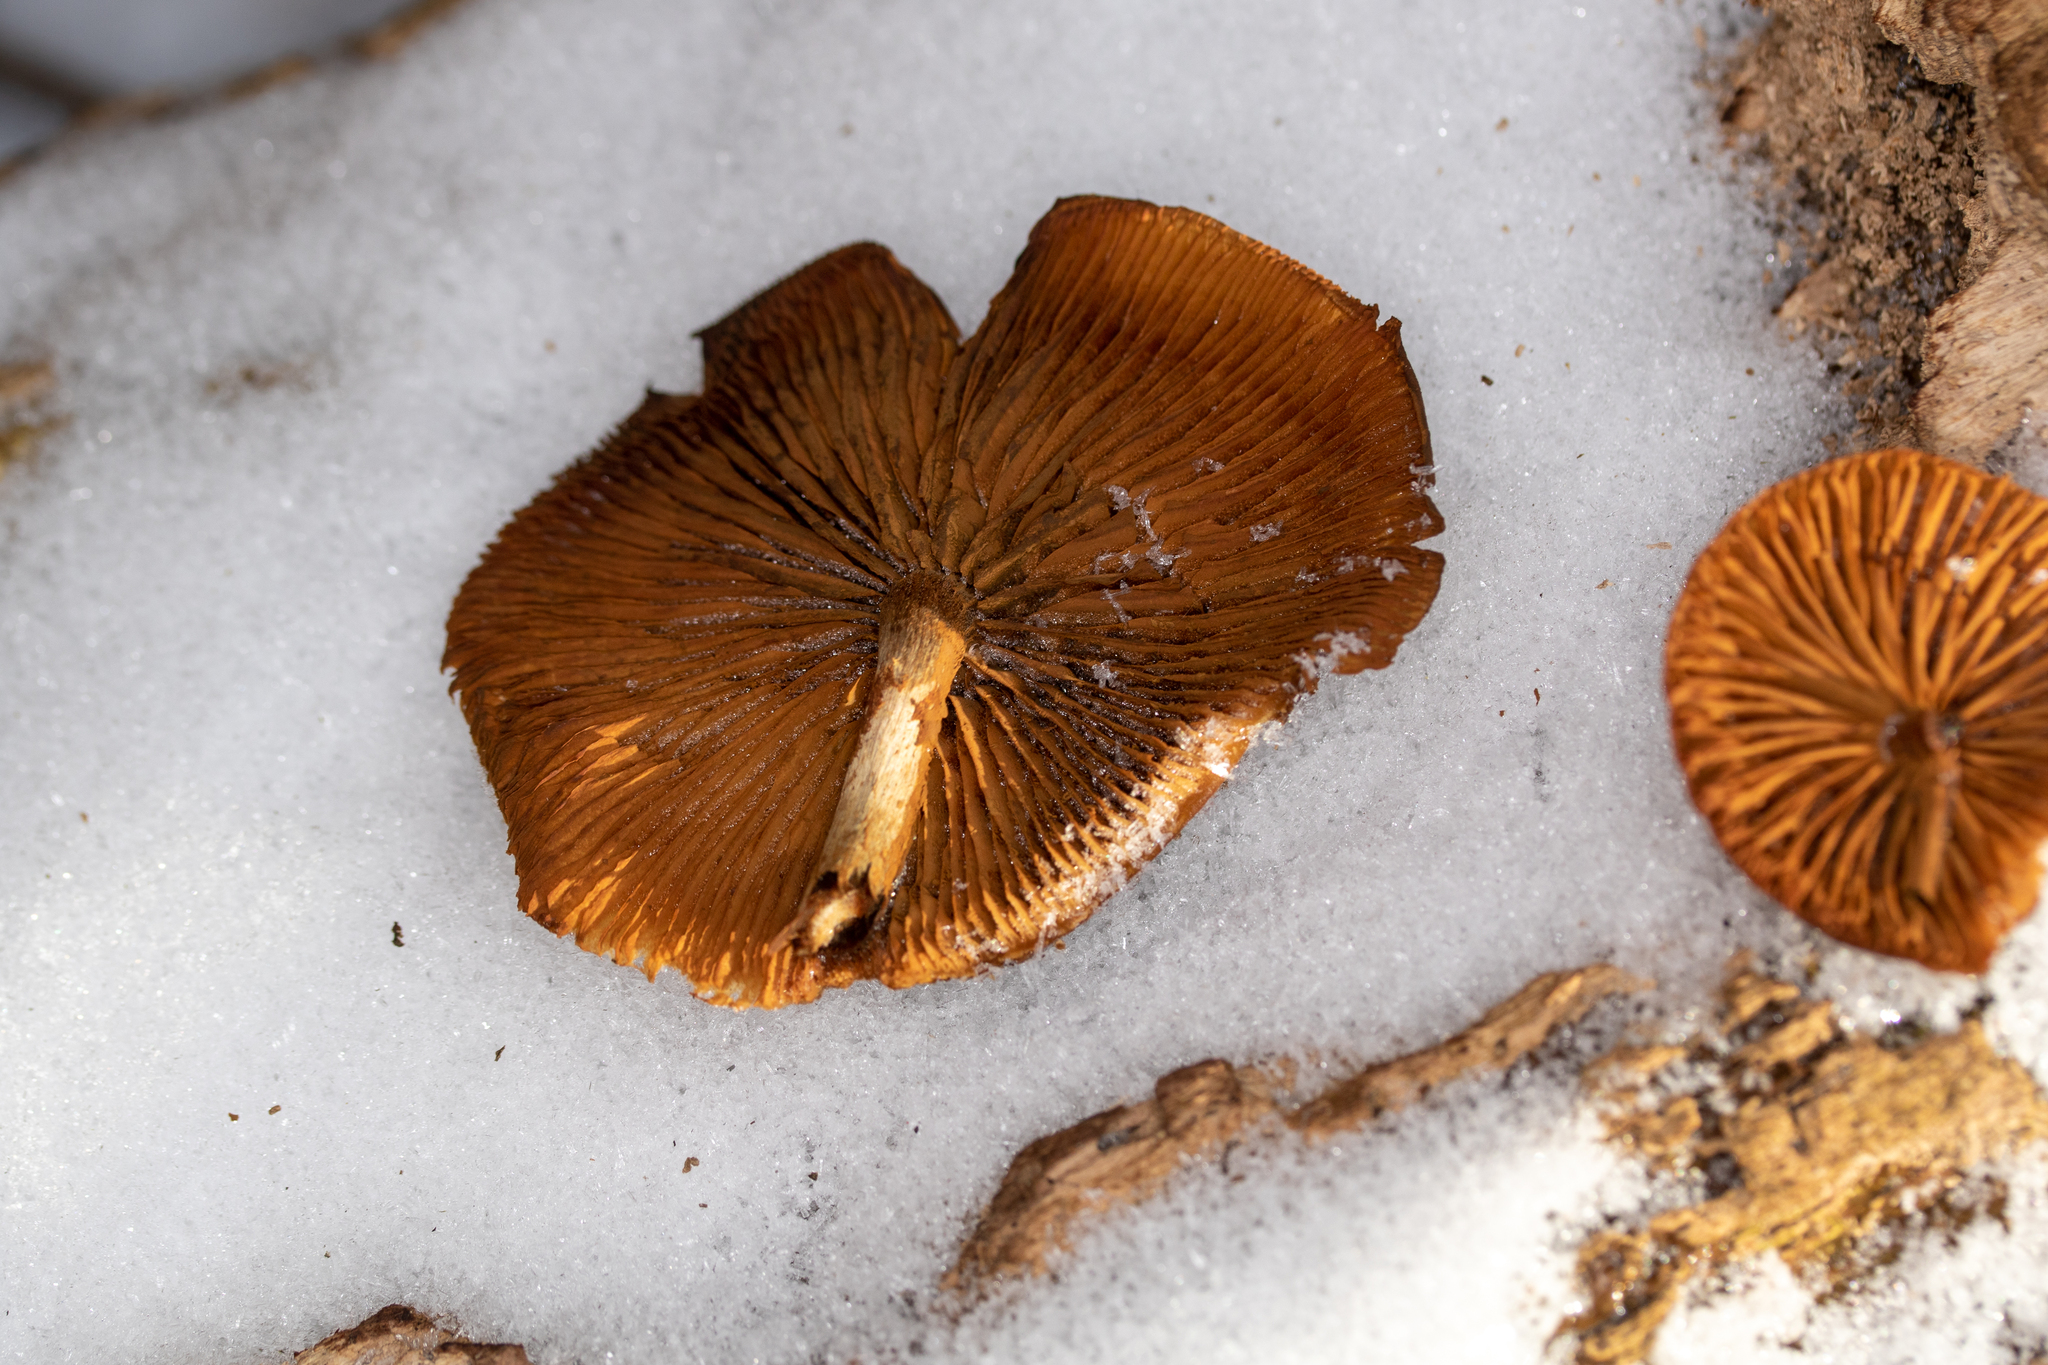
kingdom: Fungi
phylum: Basidiomycota
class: Agaricomycetes
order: Agaricales
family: Hymenogastraceae
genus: Galerina
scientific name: Galerina marginata
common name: Funeral bell
